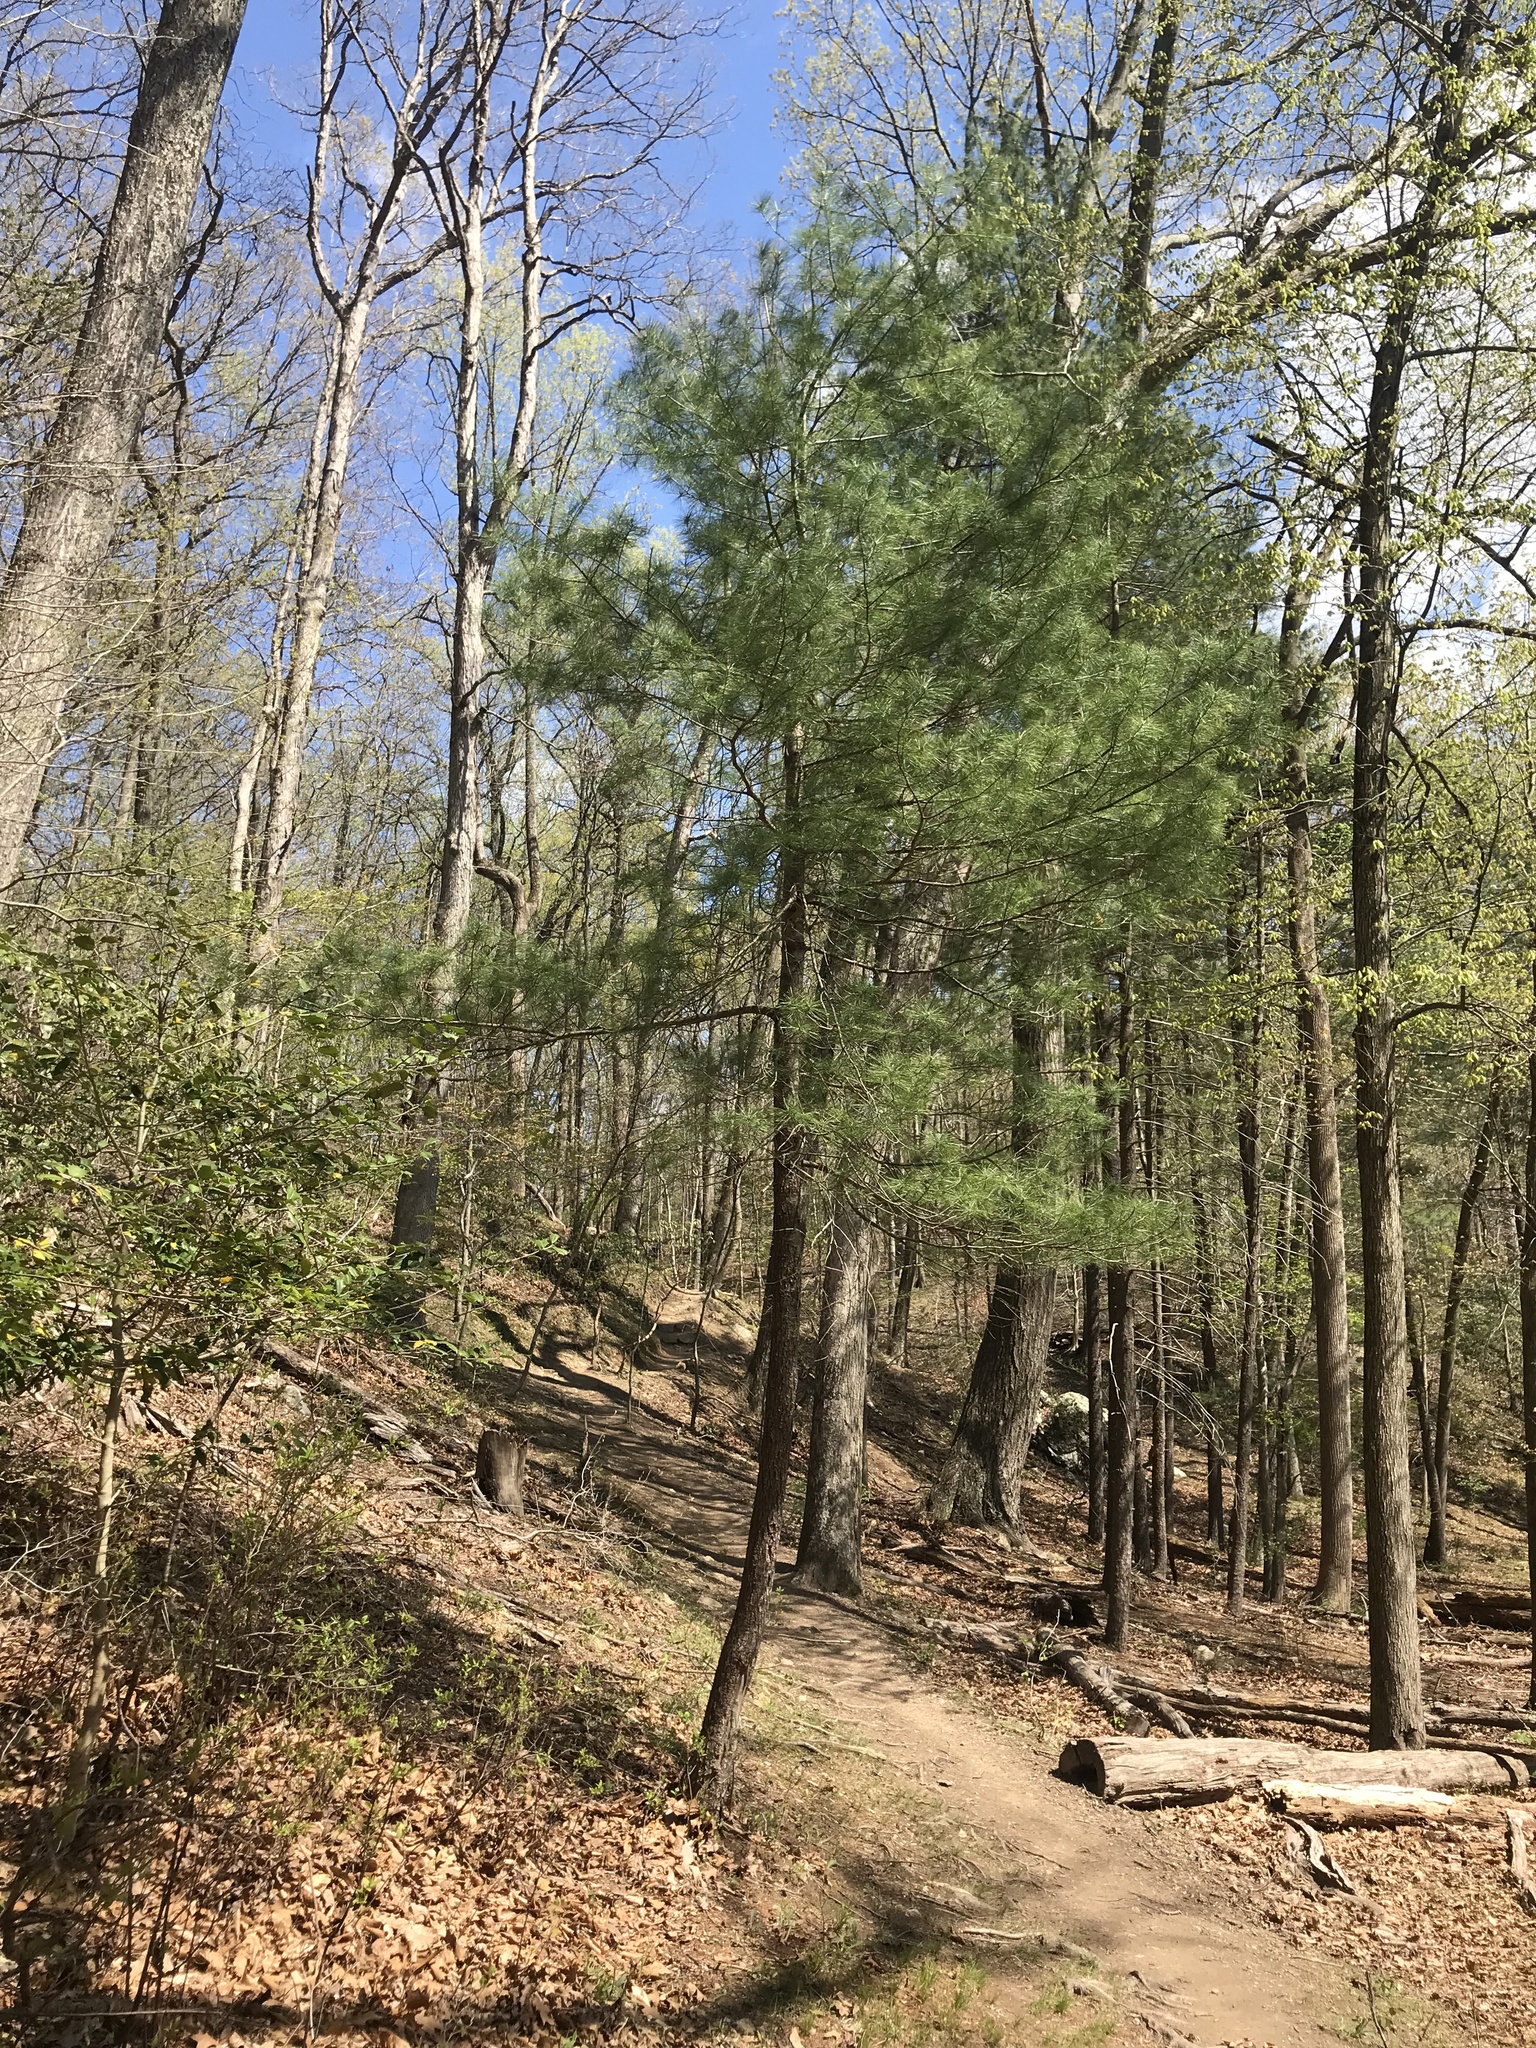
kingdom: Plantae
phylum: Tracheophyta
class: Pinopsida
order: Pinales
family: Pinaceae
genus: Pinus
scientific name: Pinus strobus
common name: Weymouth pine
